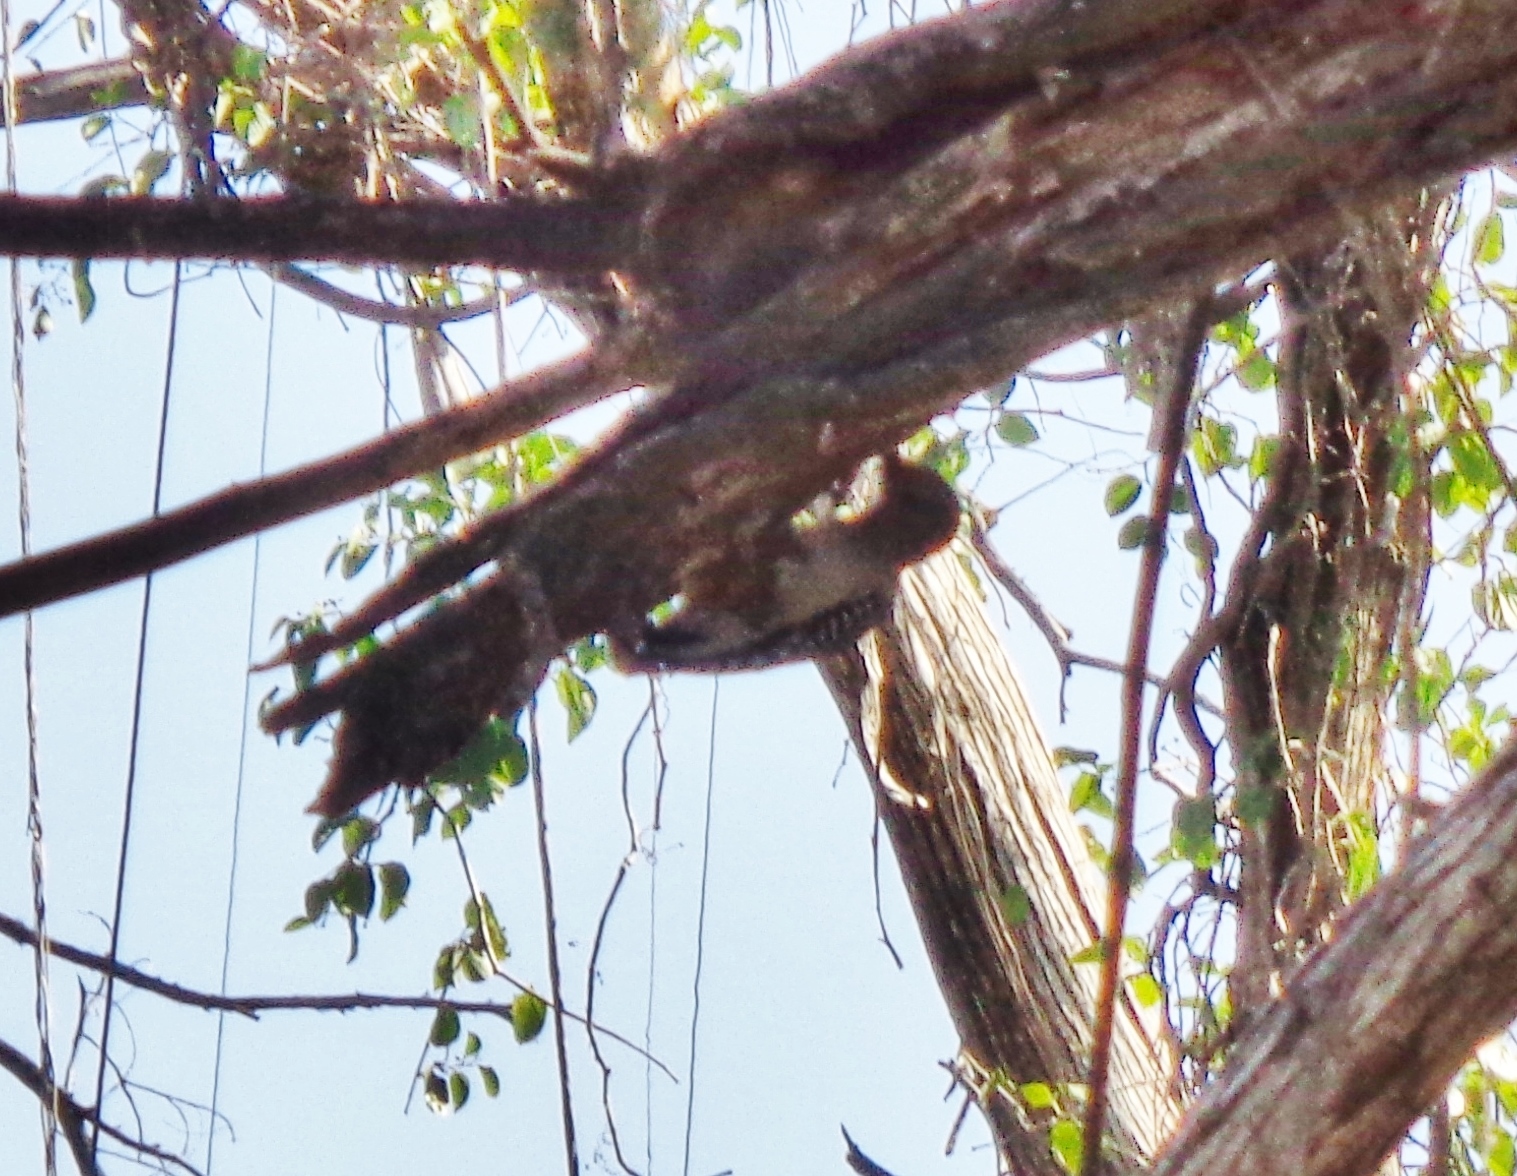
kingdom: Animalia
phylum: Chordata
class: Aves
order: Piciformes
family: Picidae
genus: Melanerpes
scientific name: Melanerpes aurifrons
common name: Golden-fronted woodpecker
